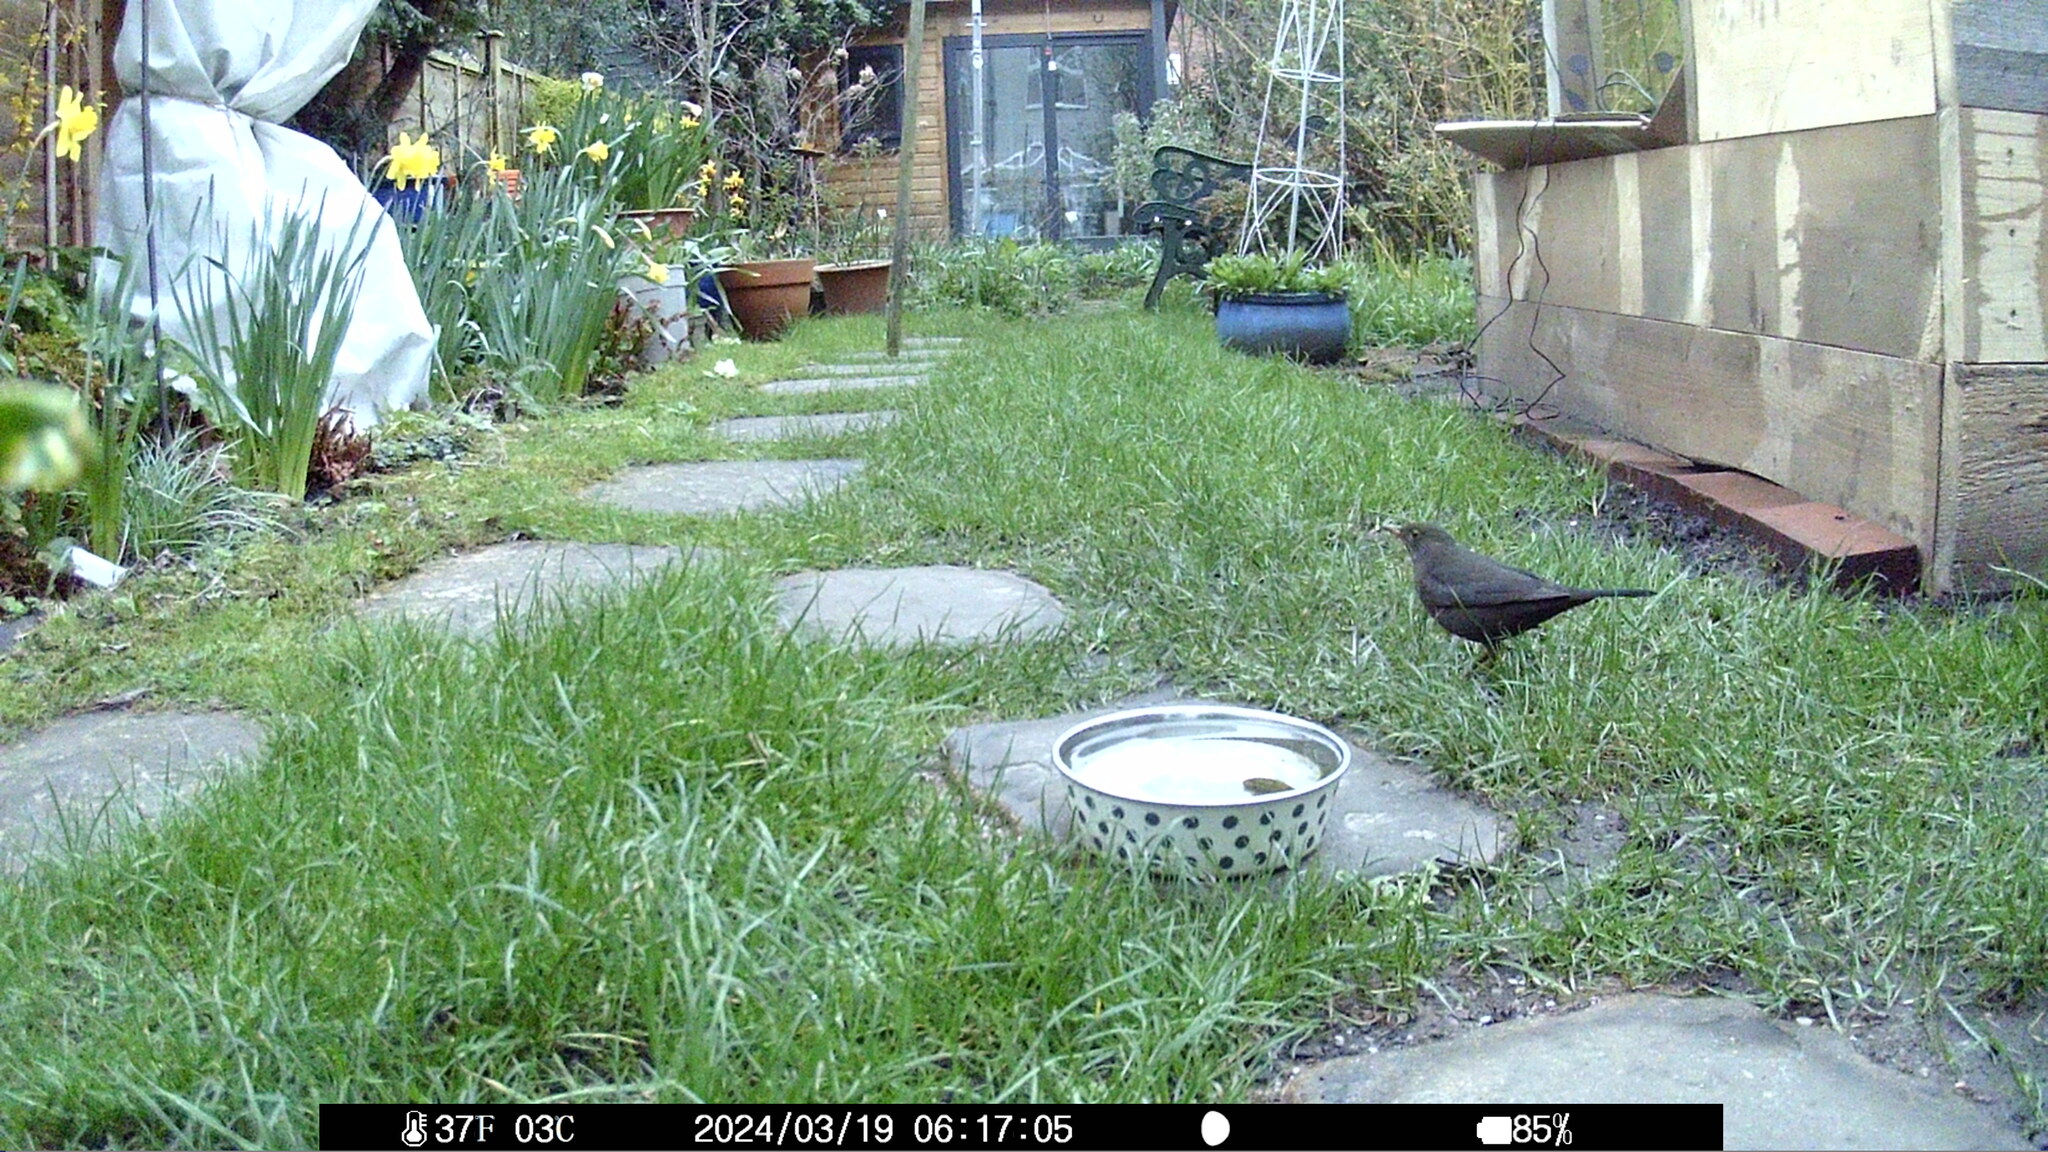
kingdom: Animalia
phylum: Chordata
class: Aves
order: Passeriformes
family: Turdidae
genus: Turdus
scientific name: Turdus merula
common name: Common blackbird
